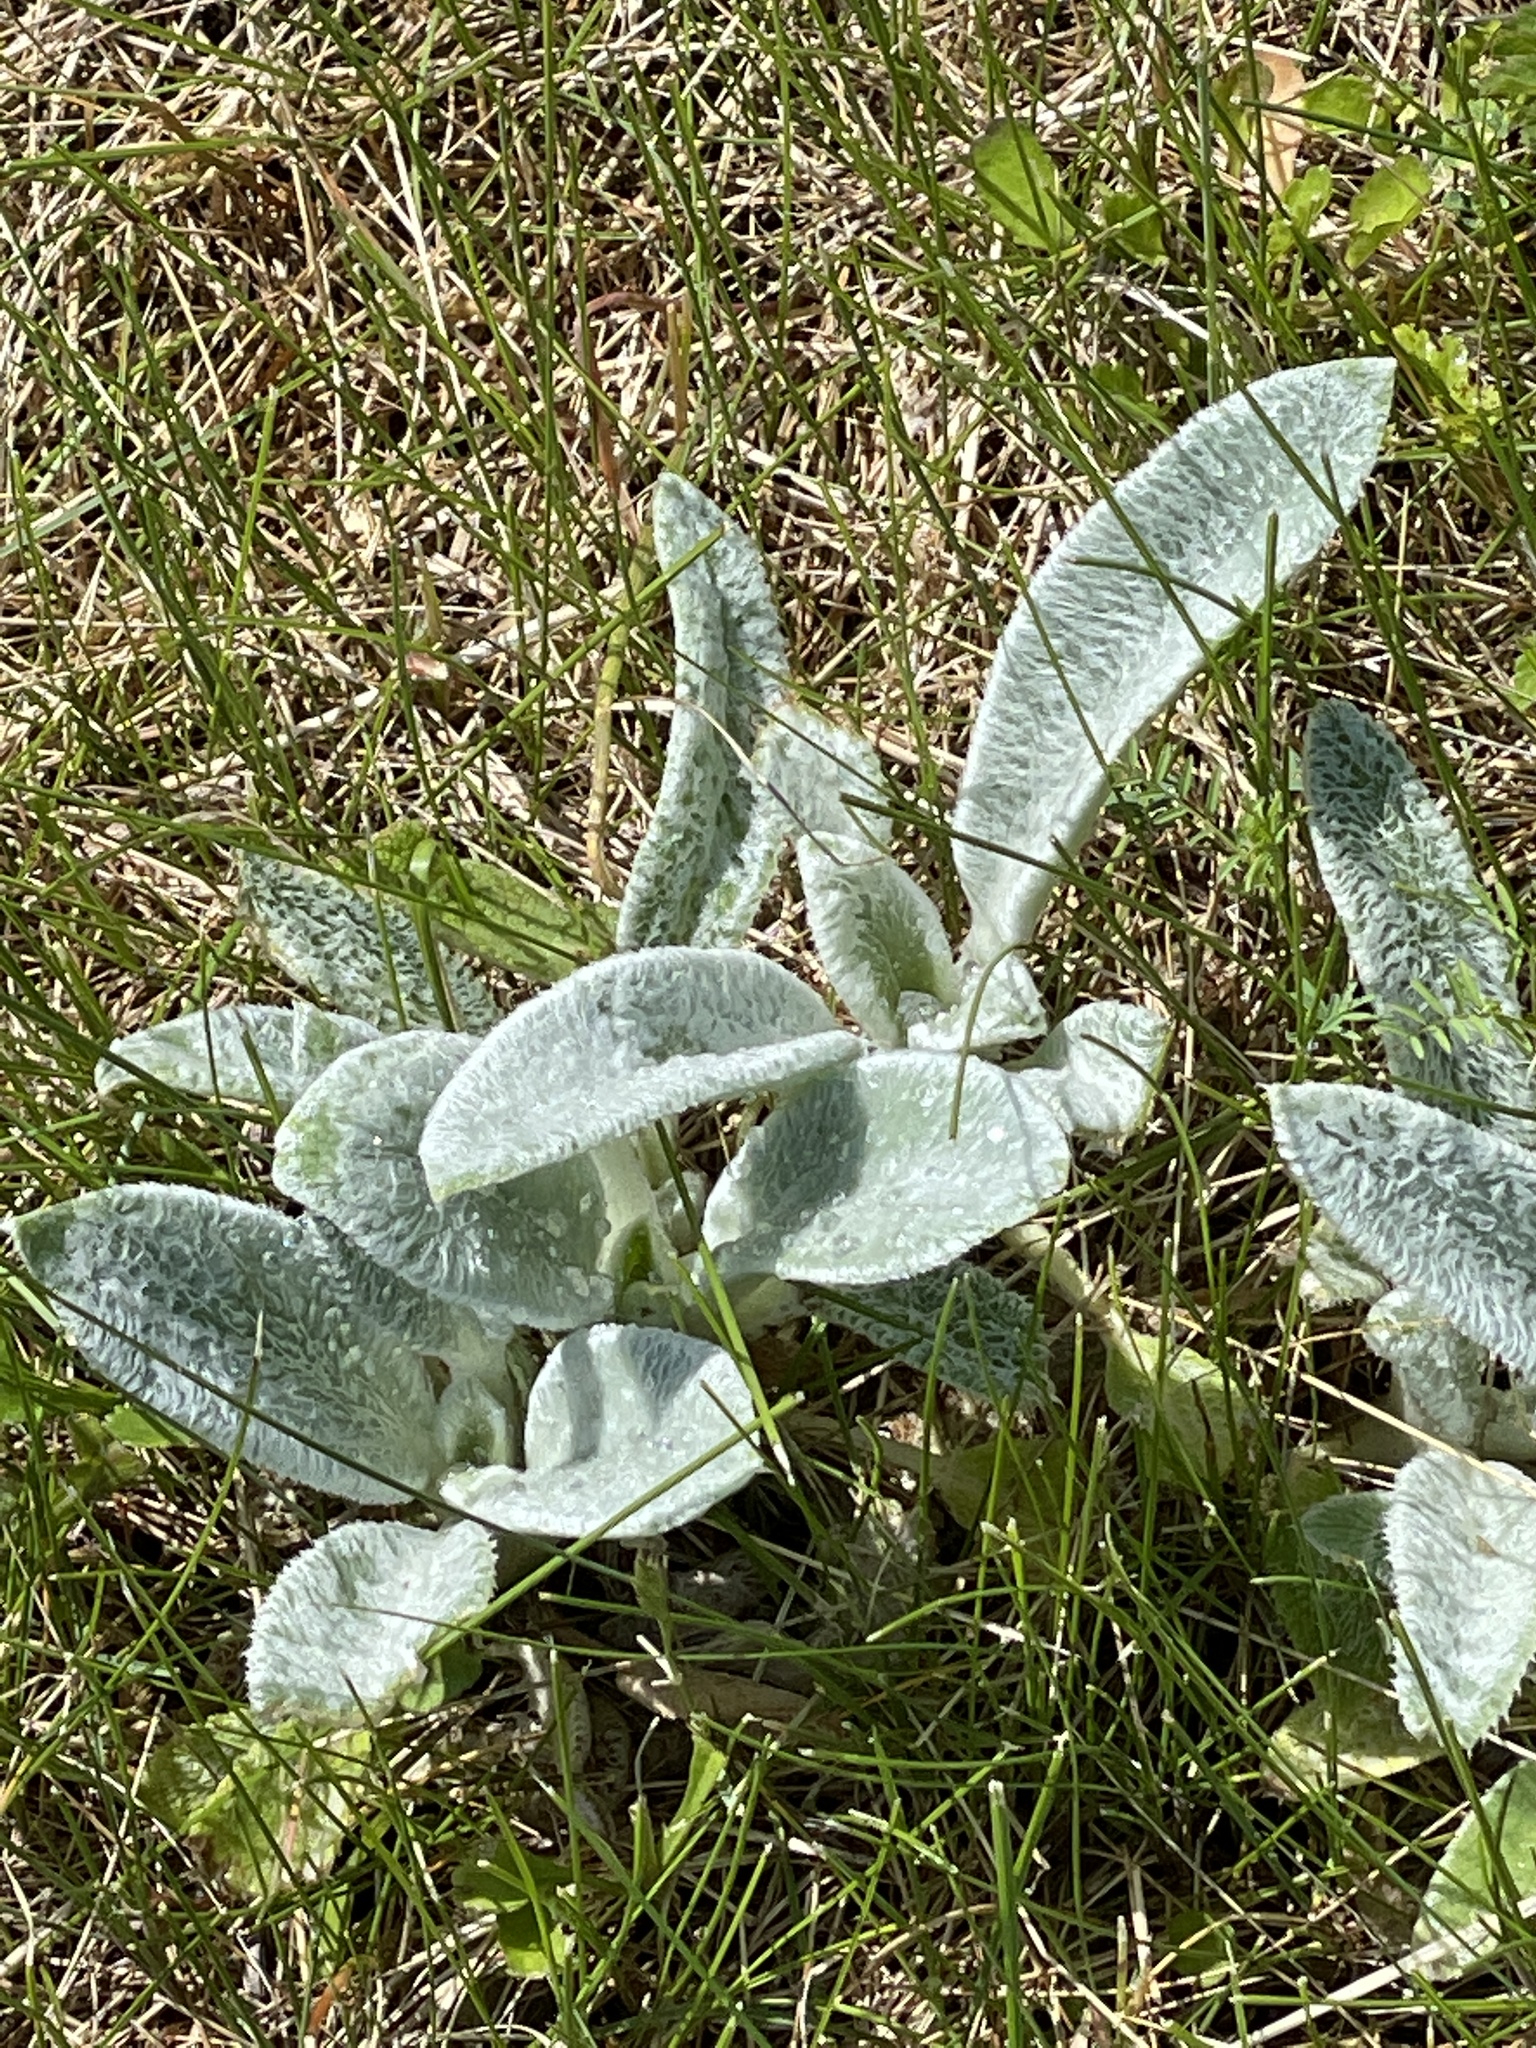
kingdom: Plantae
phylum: Tracheophyta
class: Magnoliopsida
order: Lamiales
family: Lamiaceae
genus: Stachys
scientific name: Stachys byzantina
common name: Lamb's-ear
